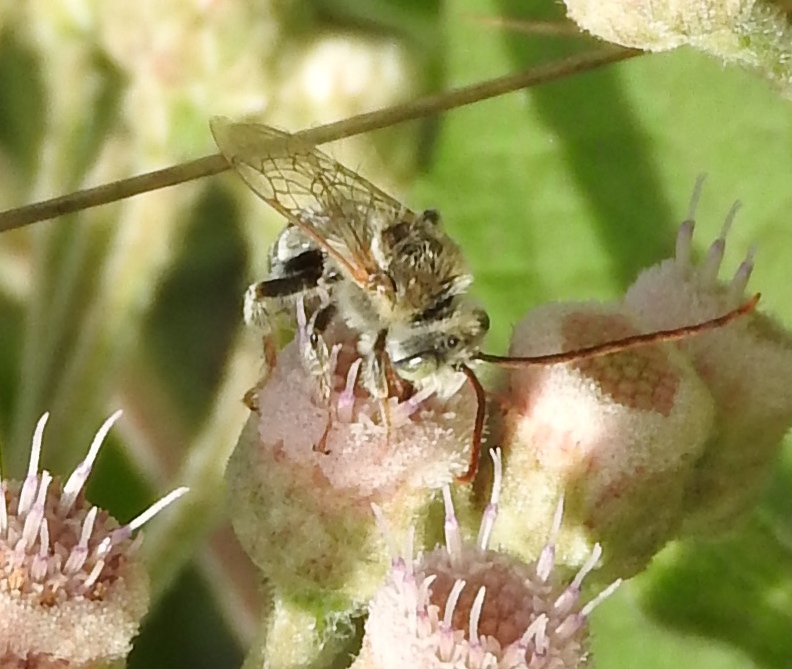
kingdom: Animalia
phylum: Arthropoda
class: Insecta
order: Hymenoptera
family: Apidae
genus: Melissodes
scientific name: Melissodes
